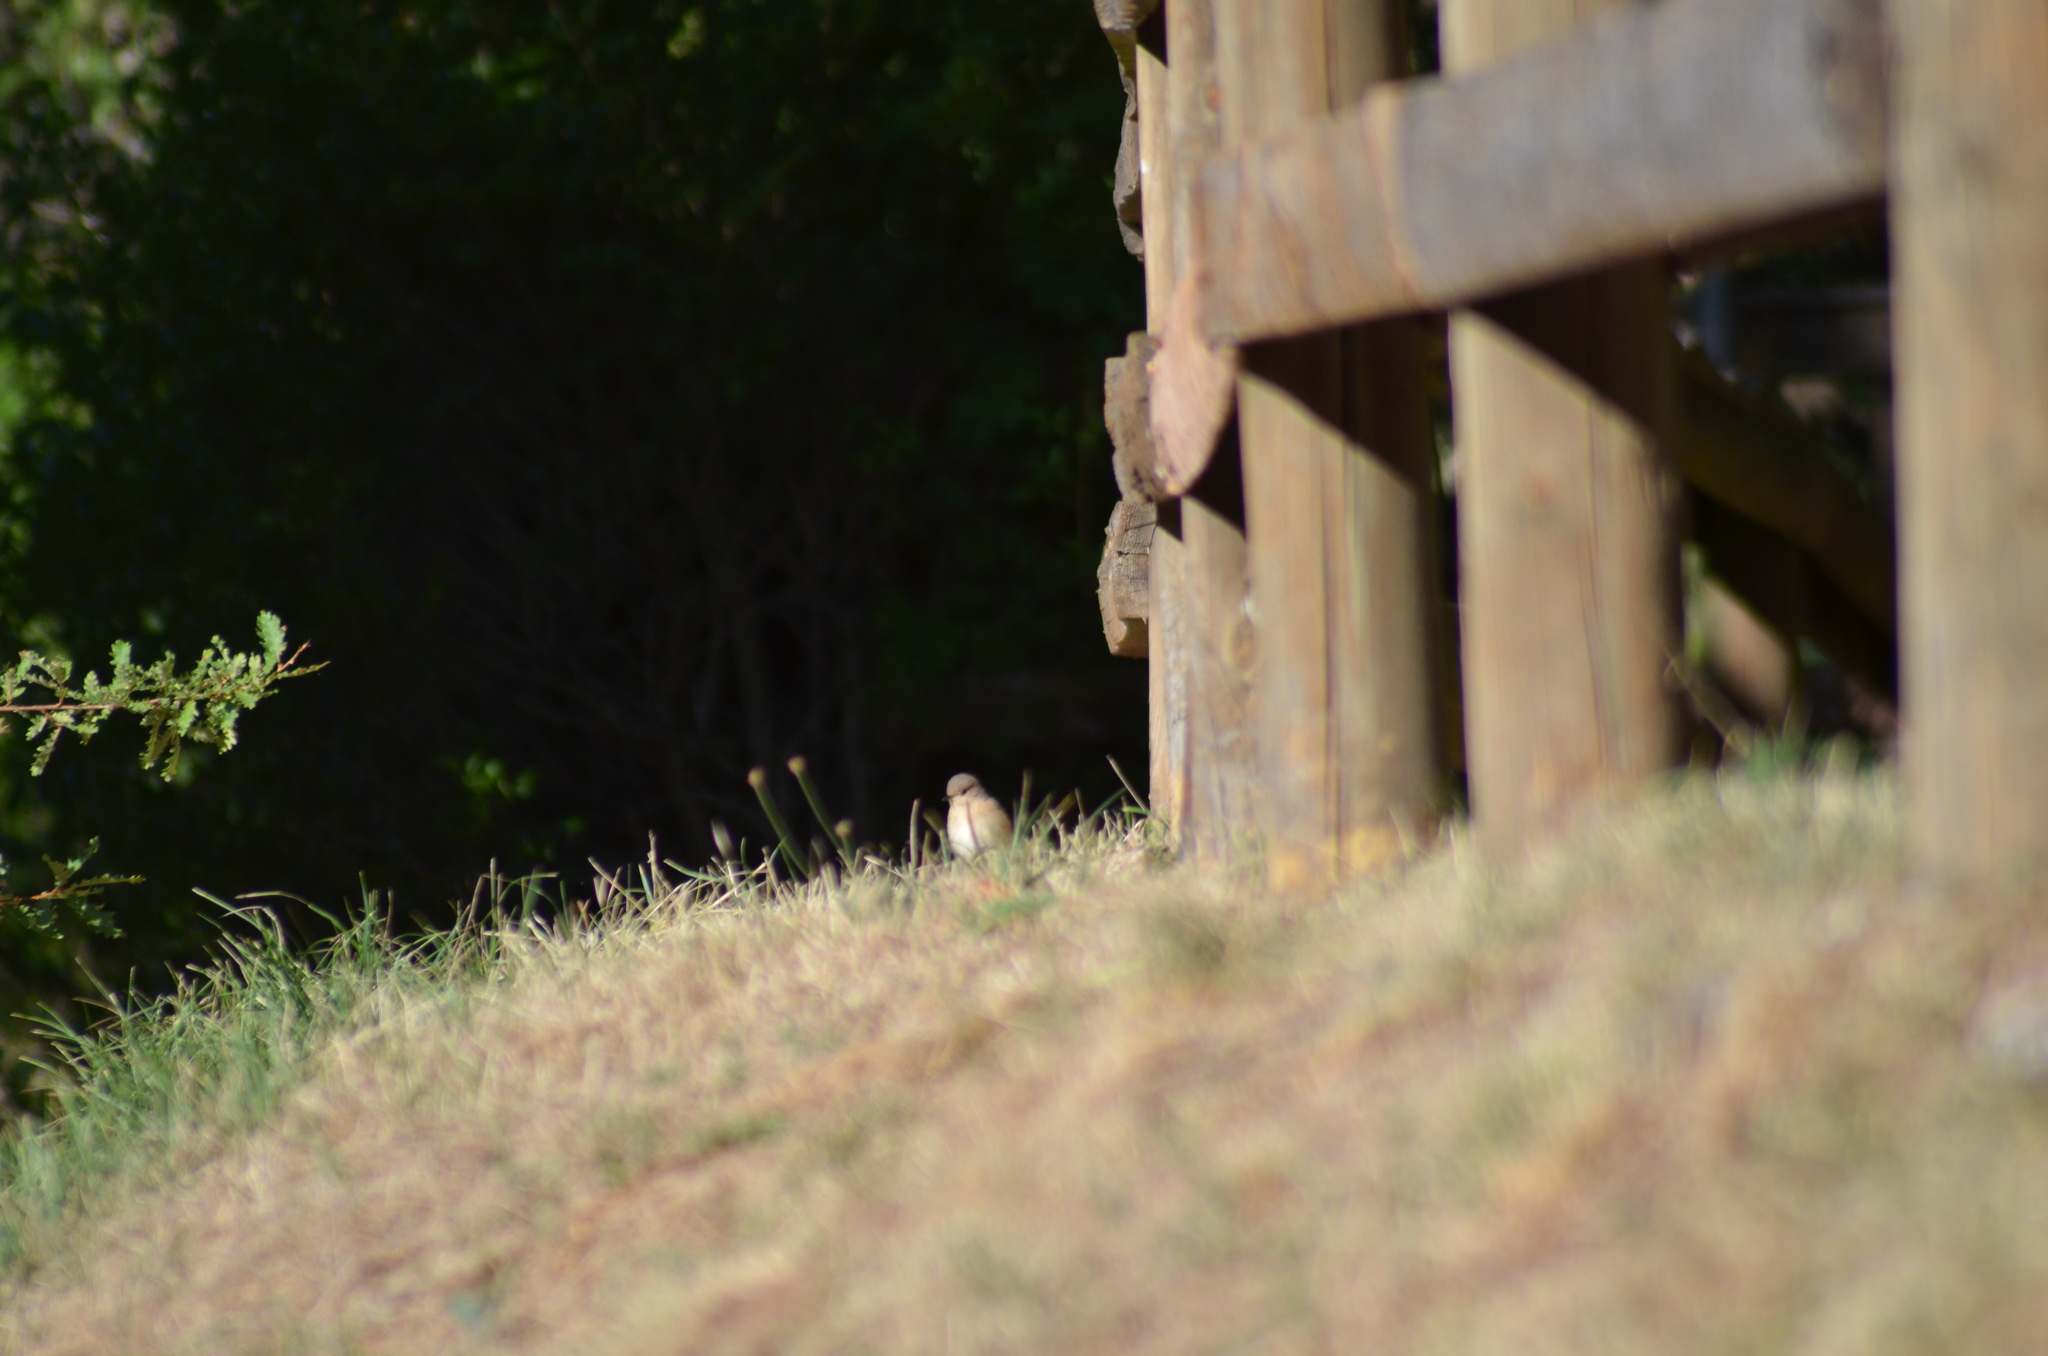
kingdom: Animalia
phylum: Chordata
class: Aves
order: Passeriformes
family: Muscicapidae
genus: Muscicapa
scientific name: Muscicapa striata
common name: Spotted flycatcher
